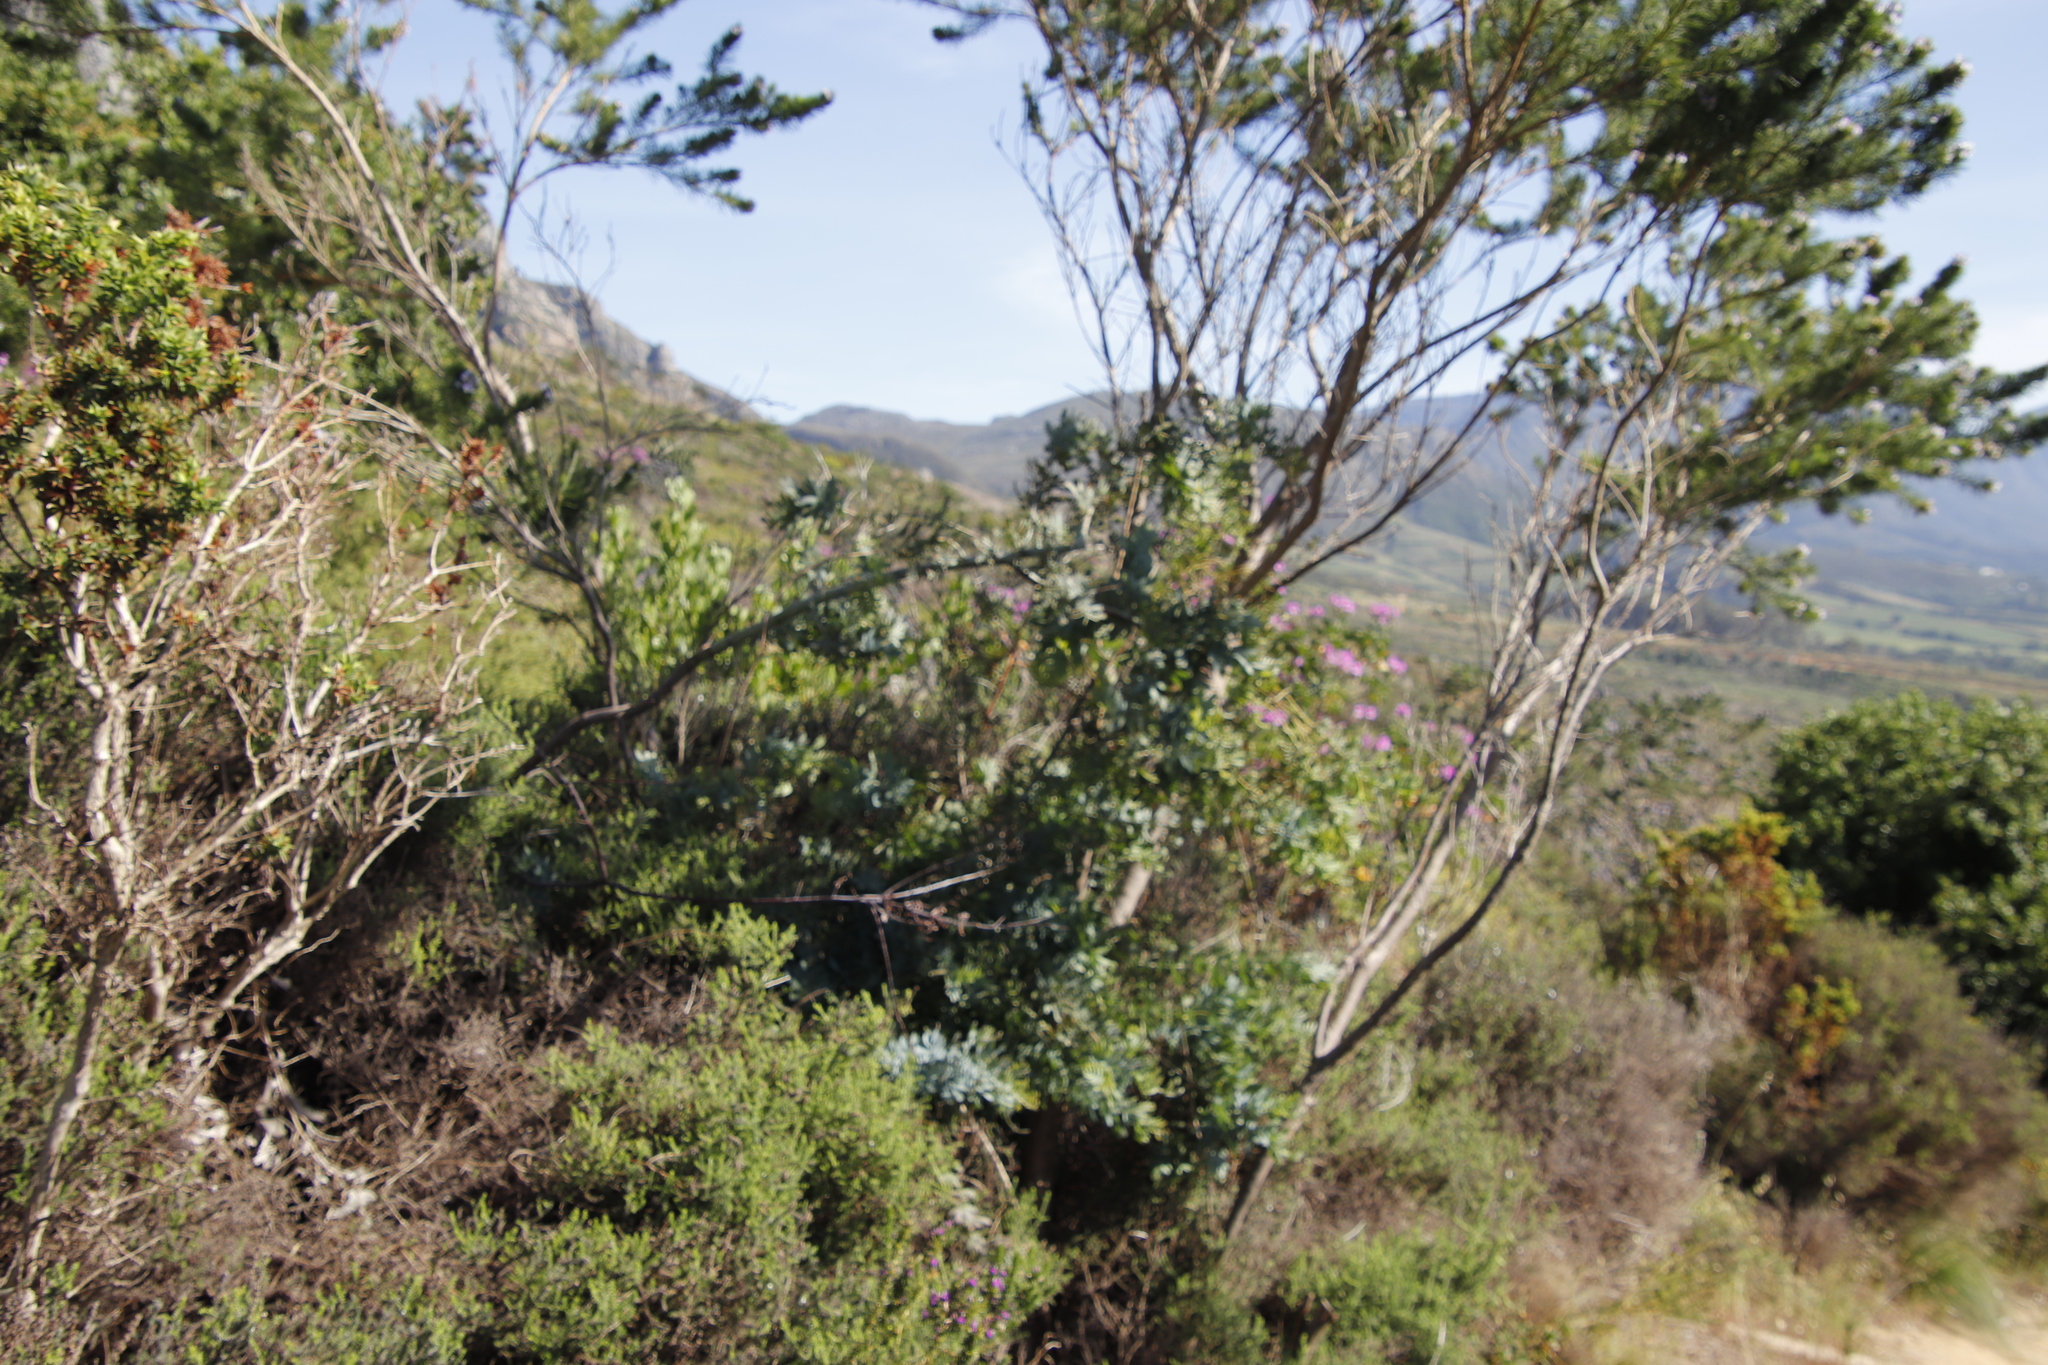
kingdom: Plantae
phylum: Tracheophyta
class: Magnoliopsida
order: Fabales
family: Fabaceae
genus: Acacia
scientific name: Acacia baileyana
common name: Cootamundra wattle
